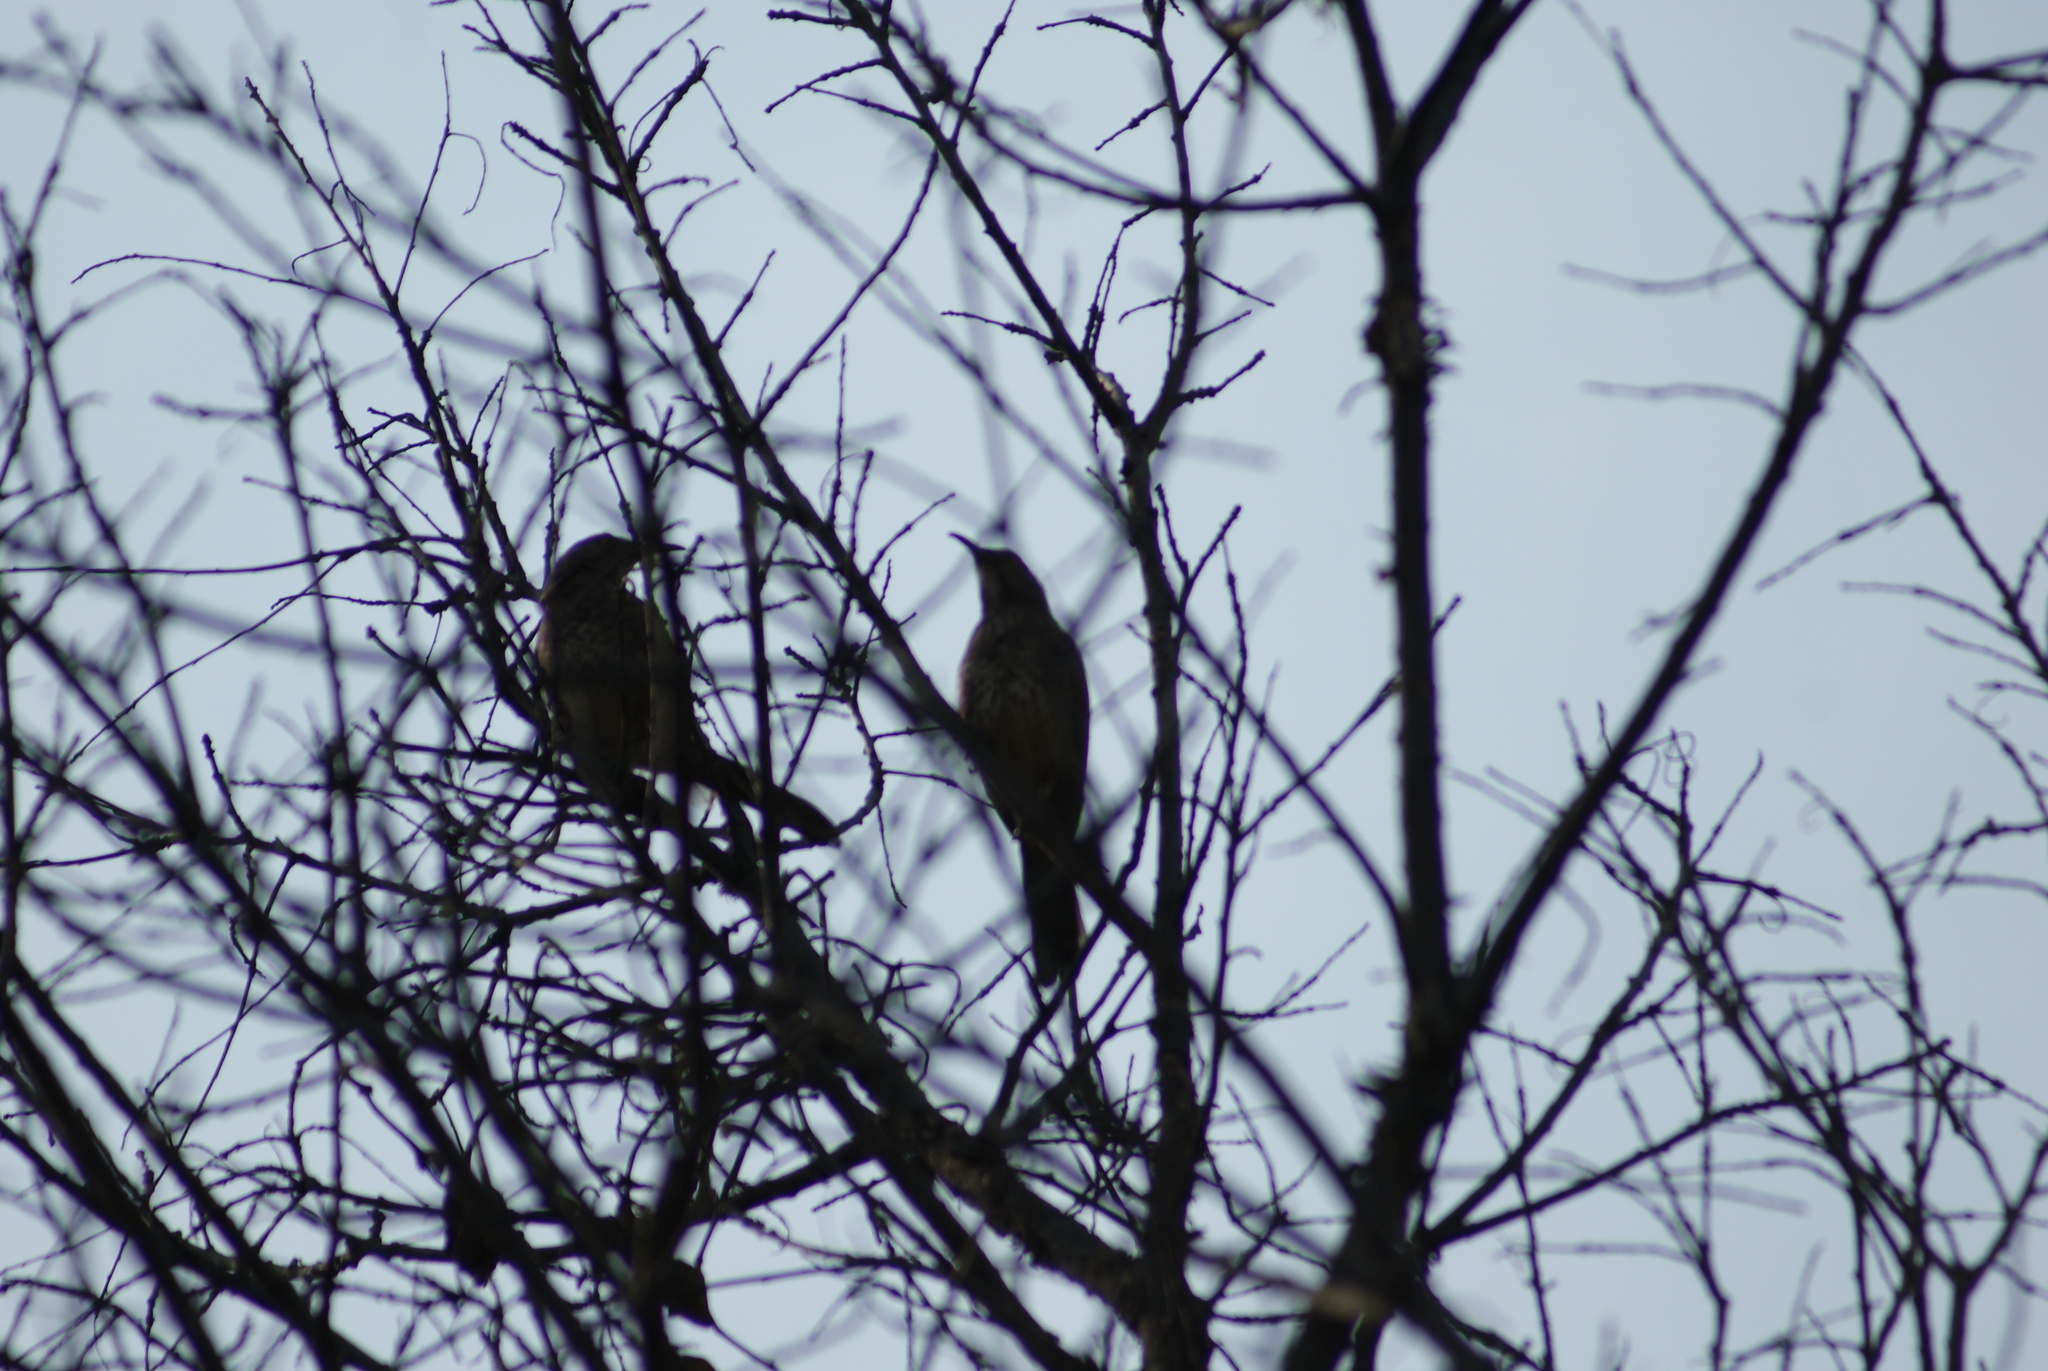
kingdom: Animalia
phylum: Chordata
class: Aves
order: Passeriformes
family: Mimidae
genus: Toxostoma
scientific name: Toxostoma curvirostre
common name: Curve-billed thrasher
